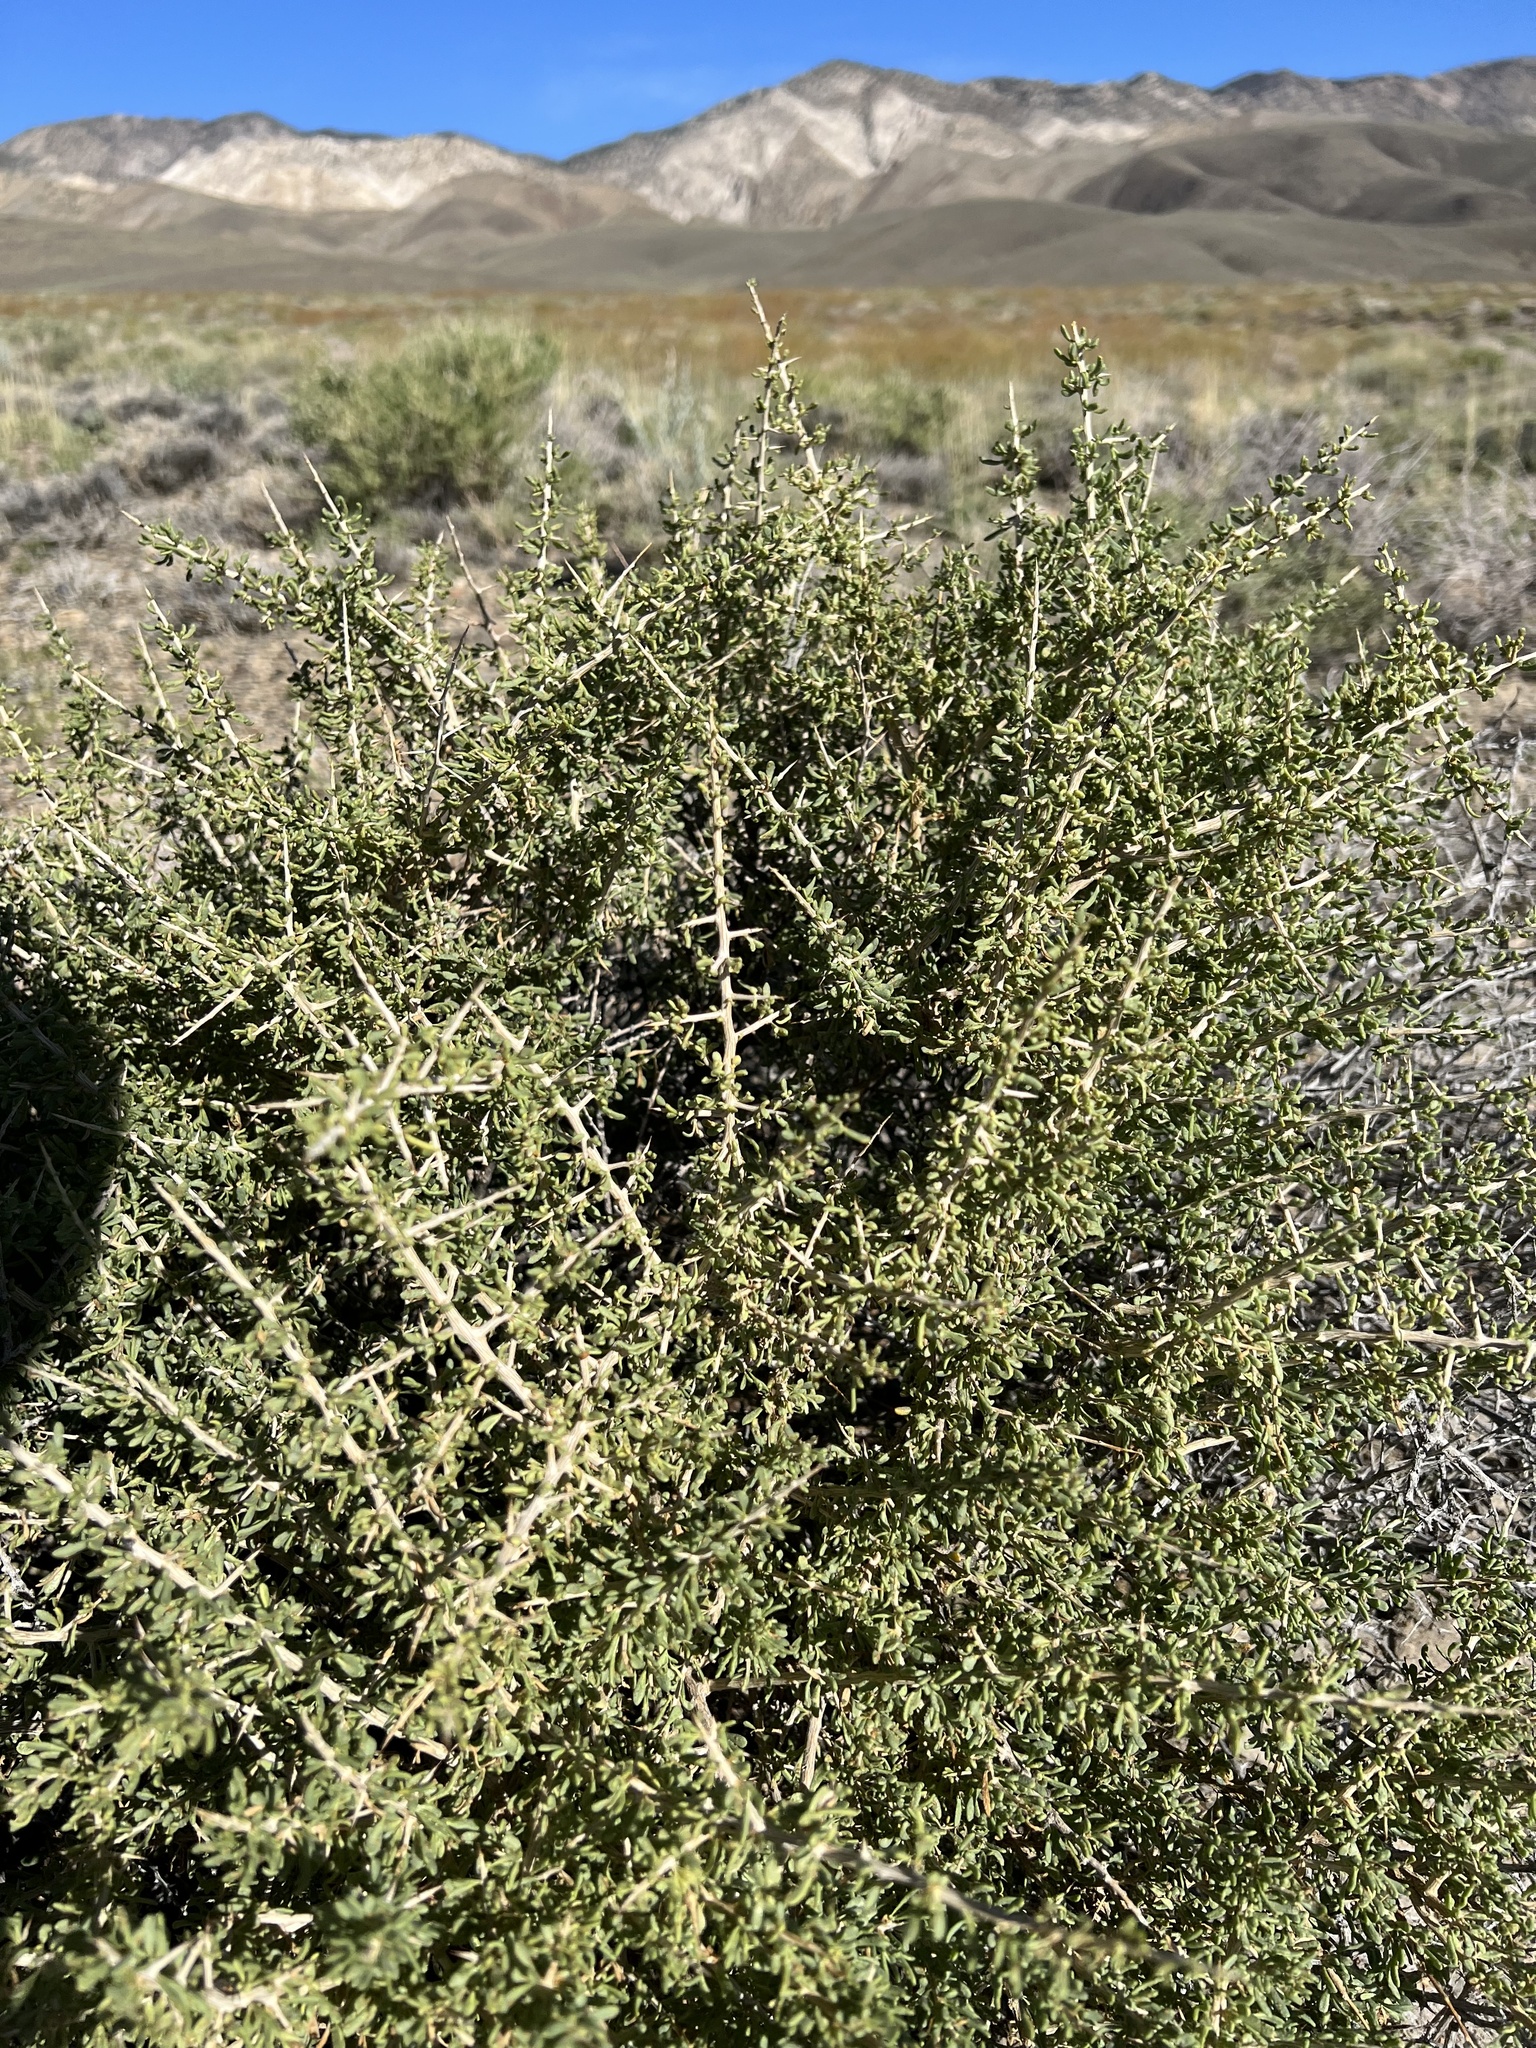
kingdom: Plantae
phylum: Tracheophyta
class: Magnoliopsida
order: Solanales
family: Solanaceae
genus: Lycium
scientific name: Lycium andersonii
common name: Water-jacket
